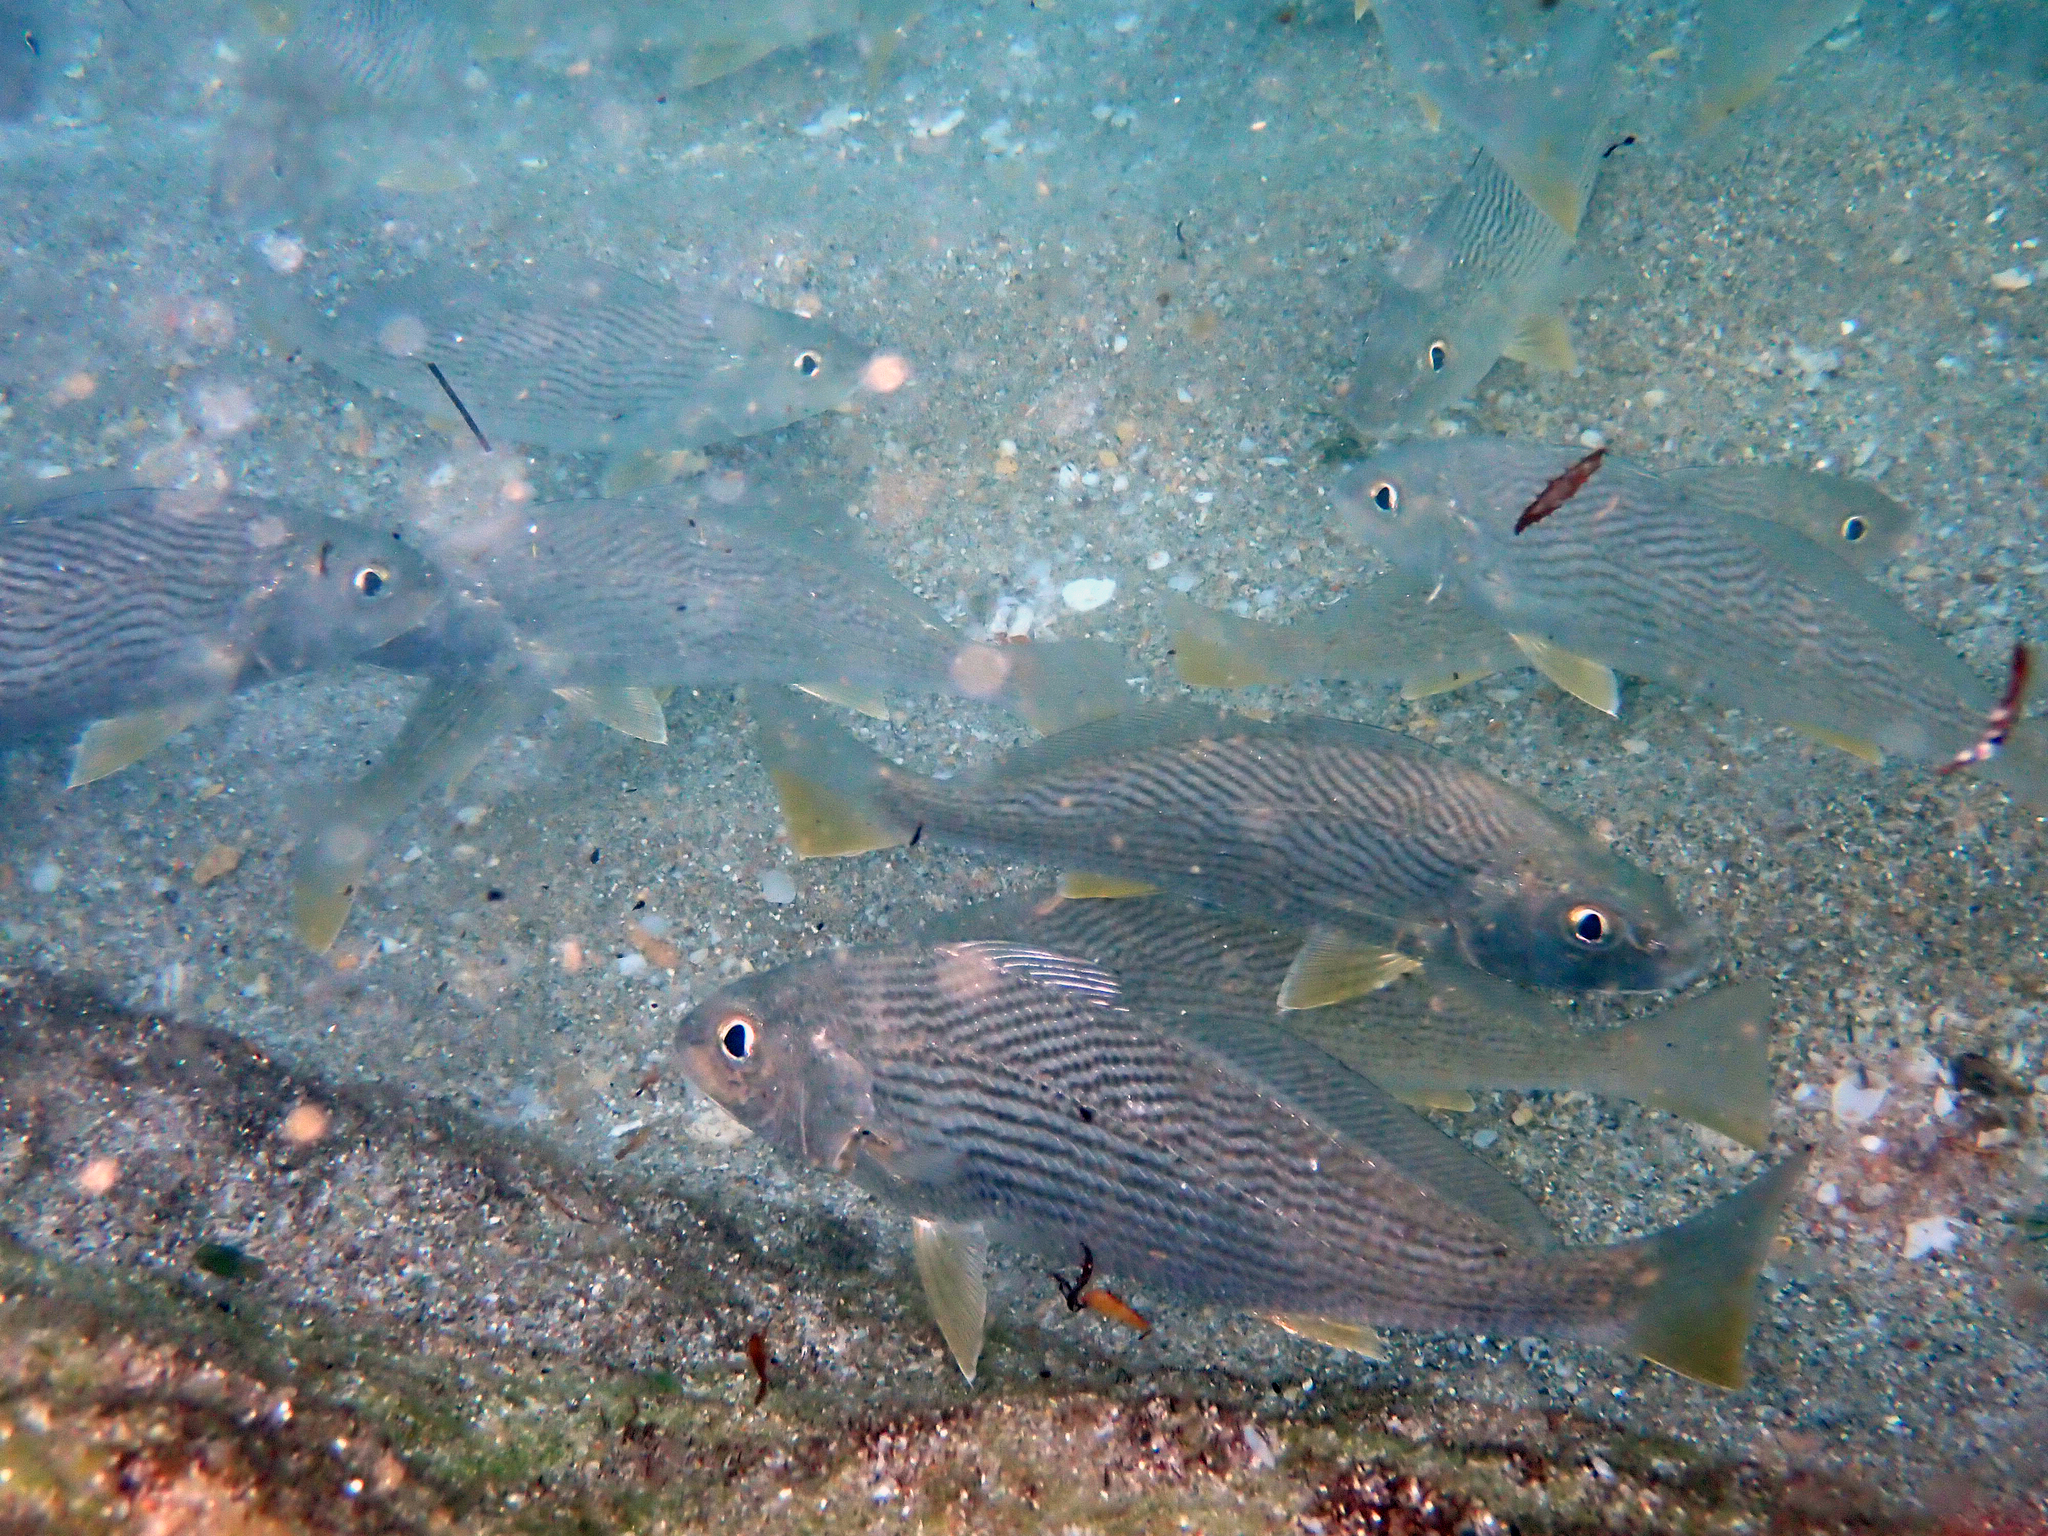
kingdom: Animalia
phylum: Chordata
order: Perciformes
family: Sciaenidae
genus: Umbrina
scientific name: Umbrina coroides
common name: Sand drum
